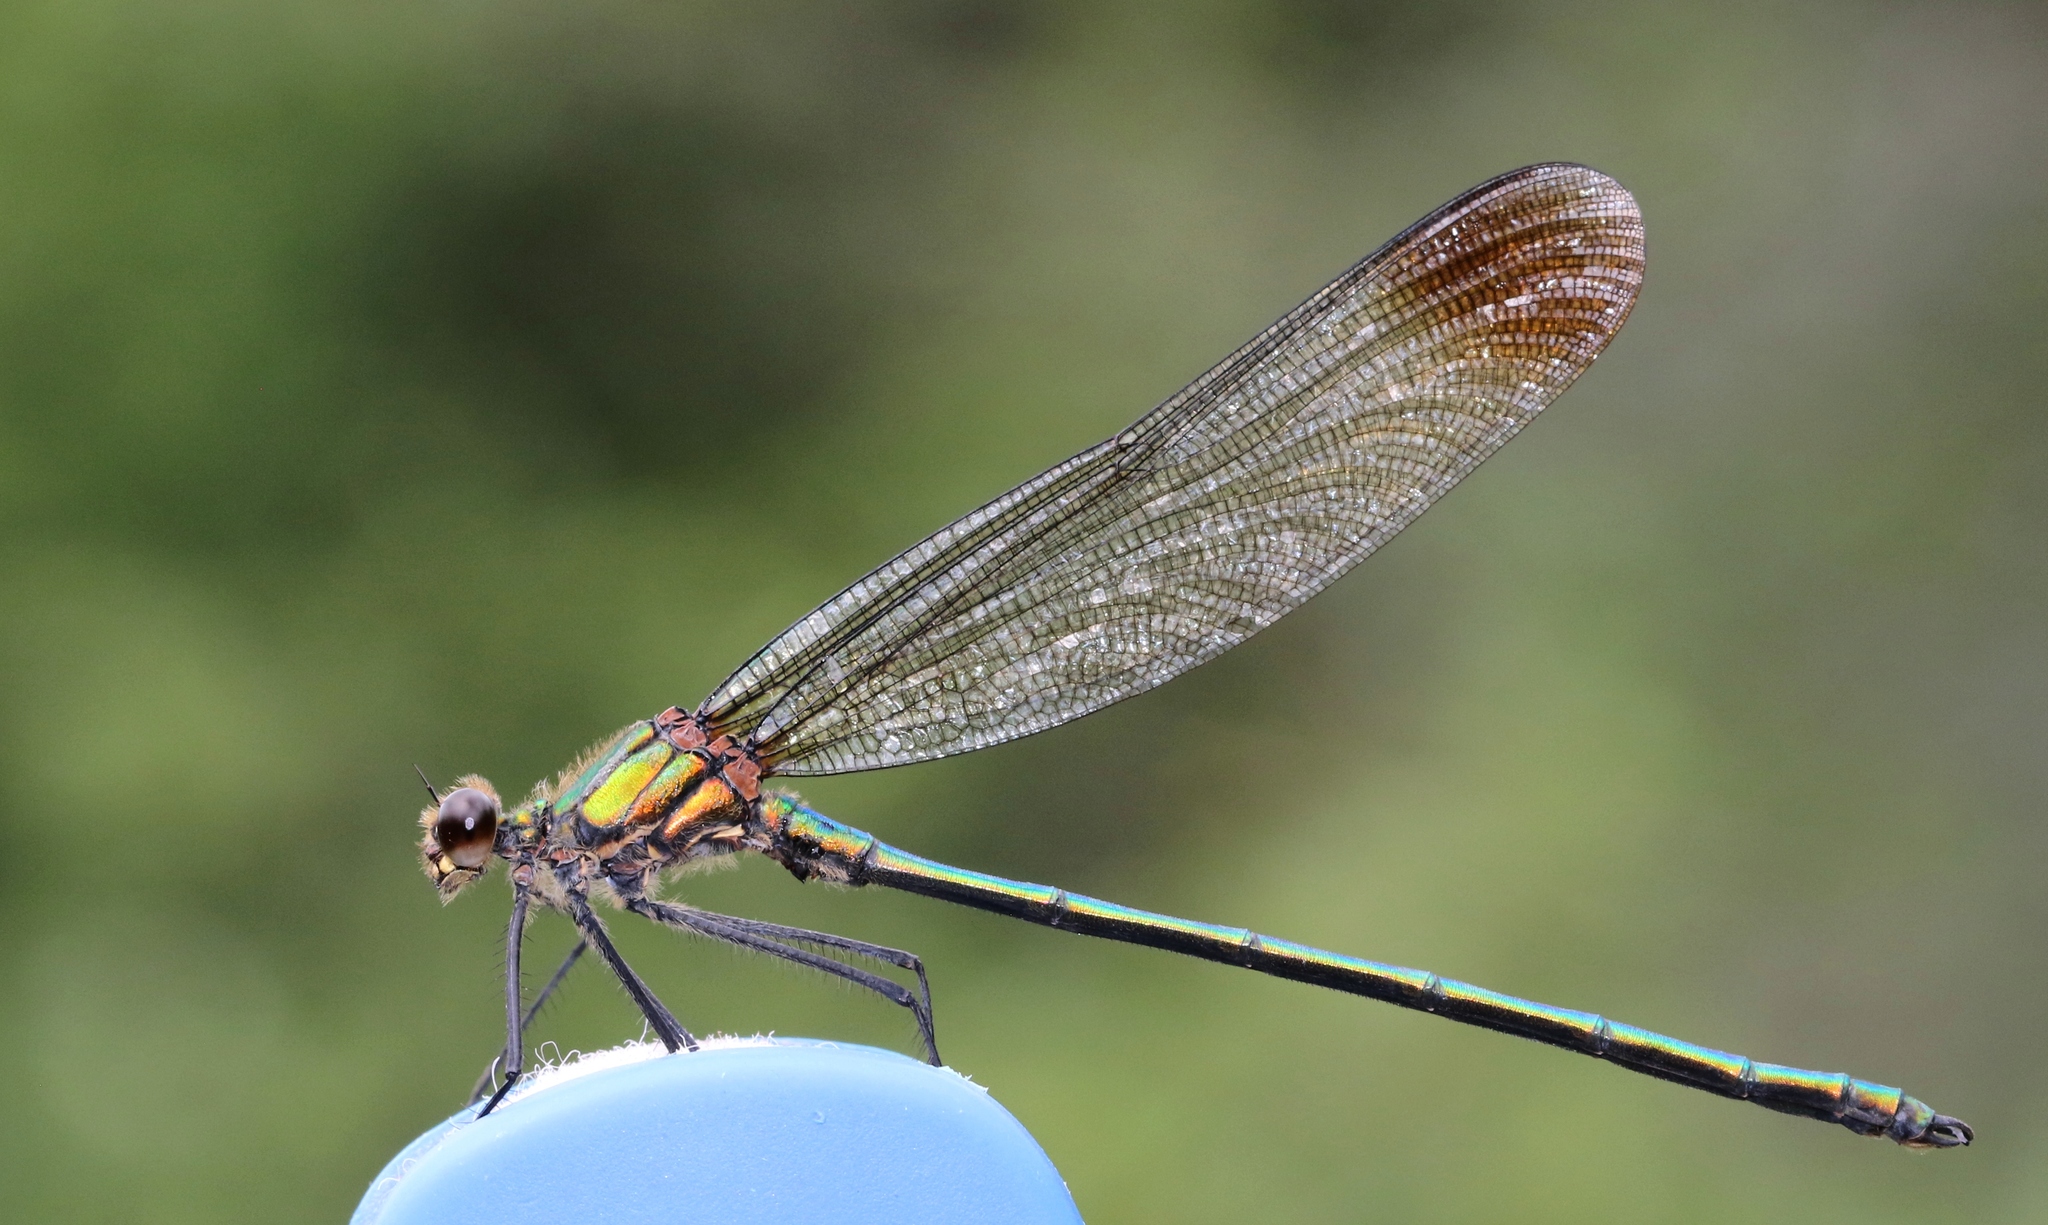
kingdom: Animalia
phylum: Arthropoda
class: Insecta
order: Odonata
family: Calopterygidae
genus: Calopteryx
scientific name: Calopteryx amata
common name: Superb jewelwing
